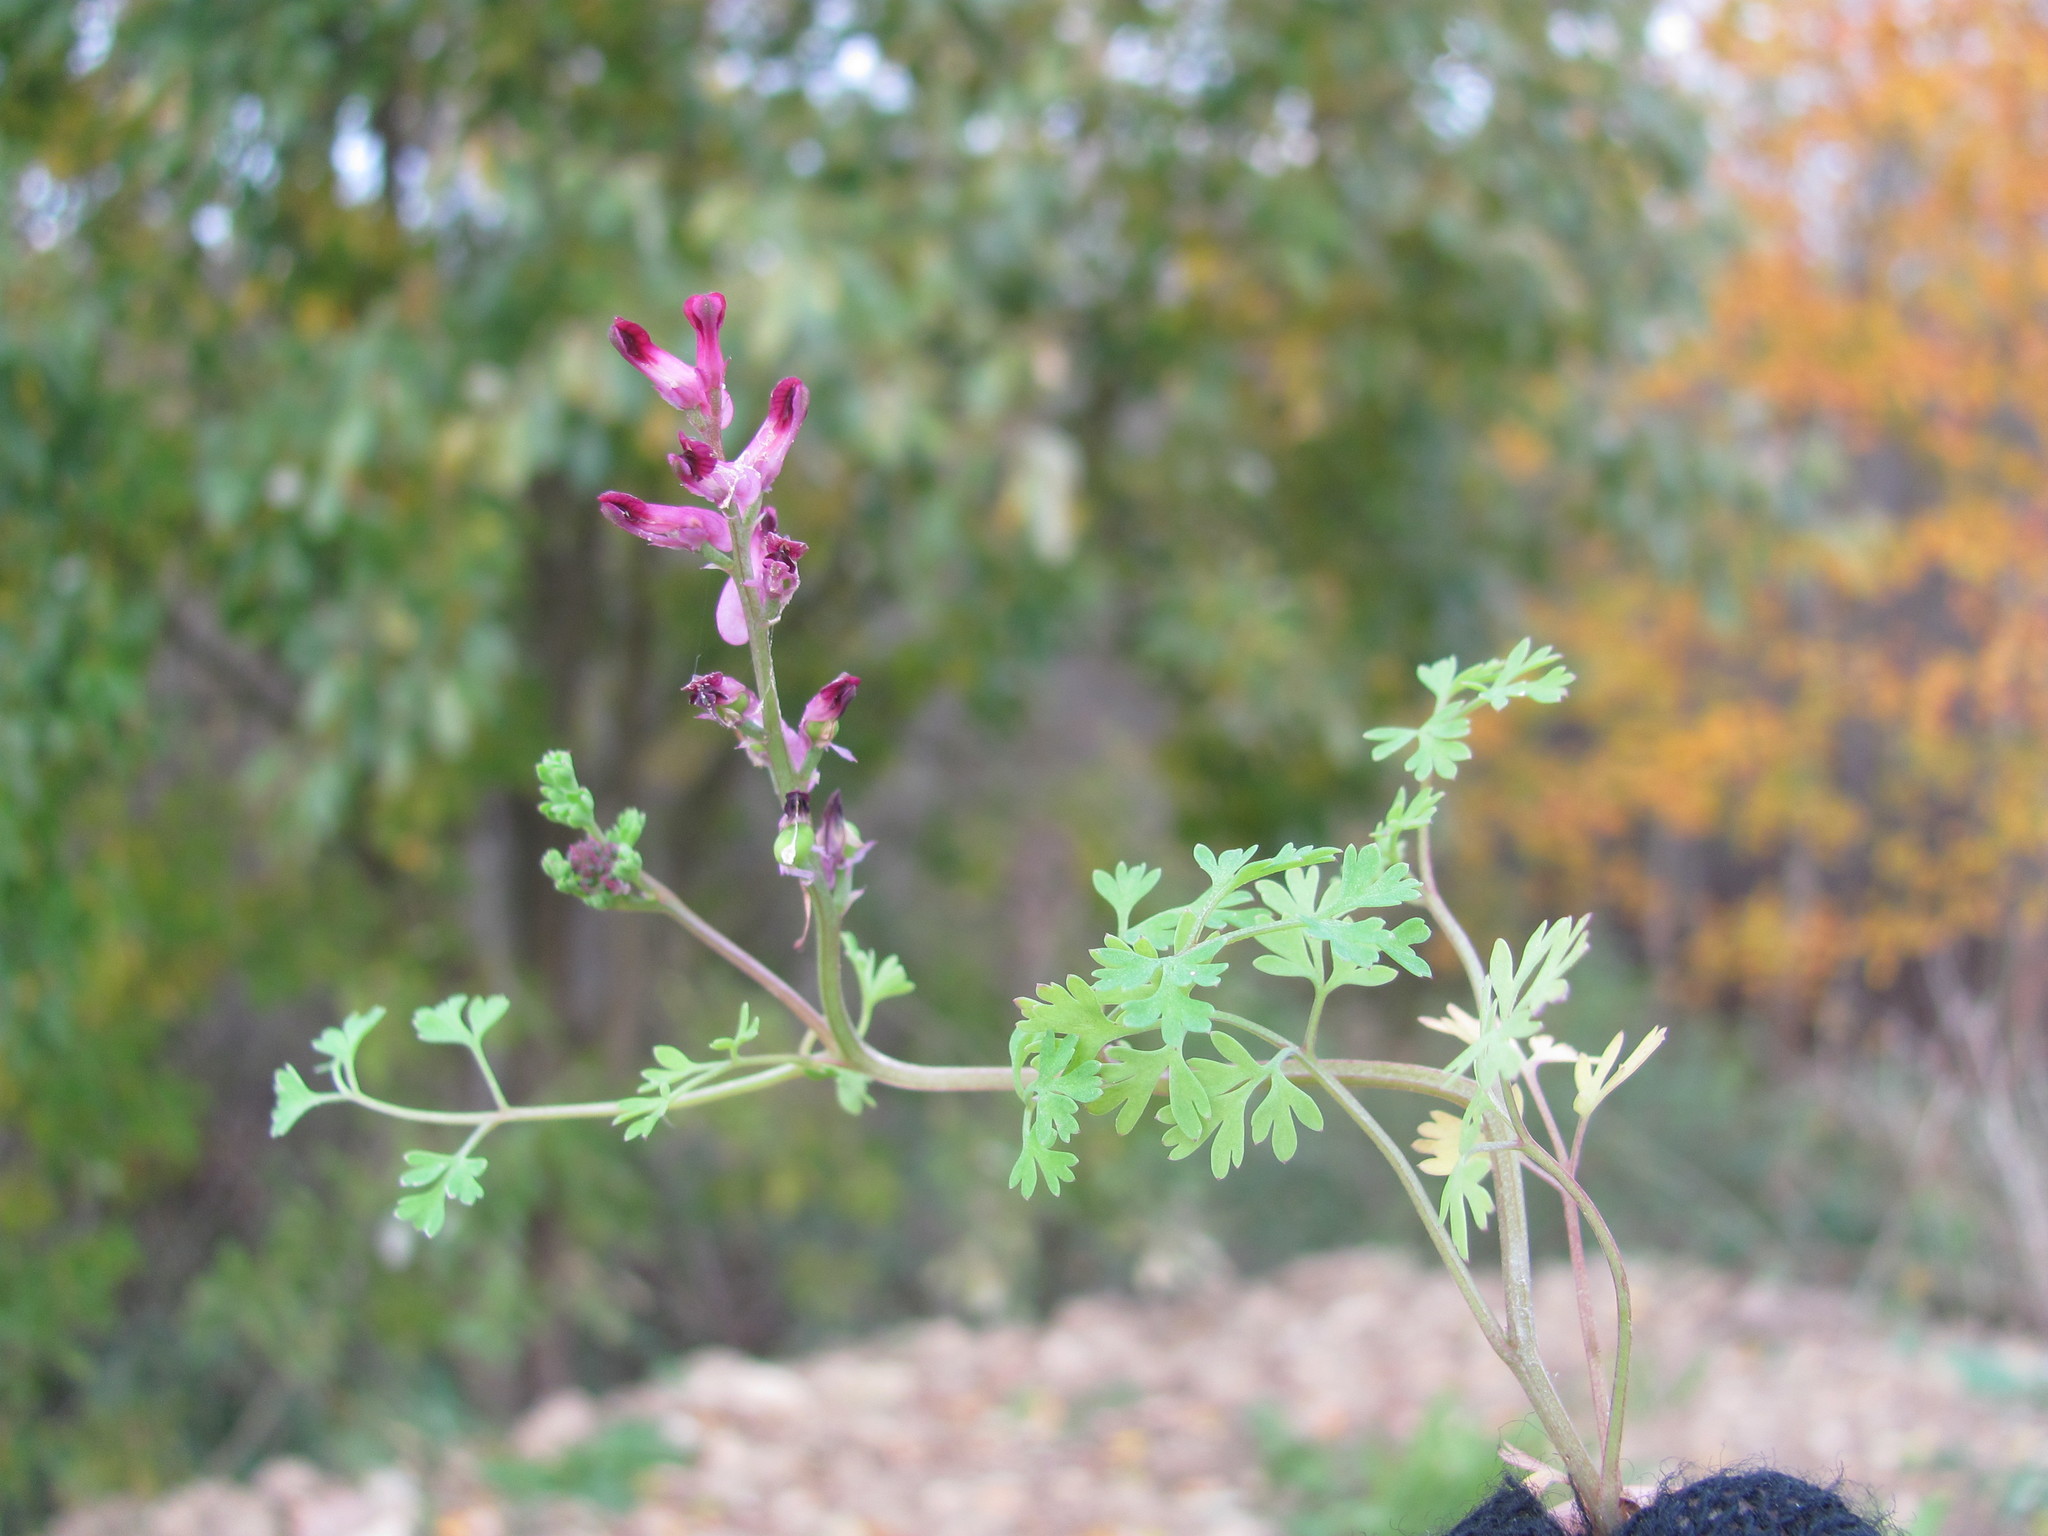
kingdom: Plantae
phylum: Tracheophyta
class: Magnoliopsida
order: Ranunculales
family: Papaveraceae
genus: Fumaria
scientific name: Fumaria officinalis
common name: Common fumitory
